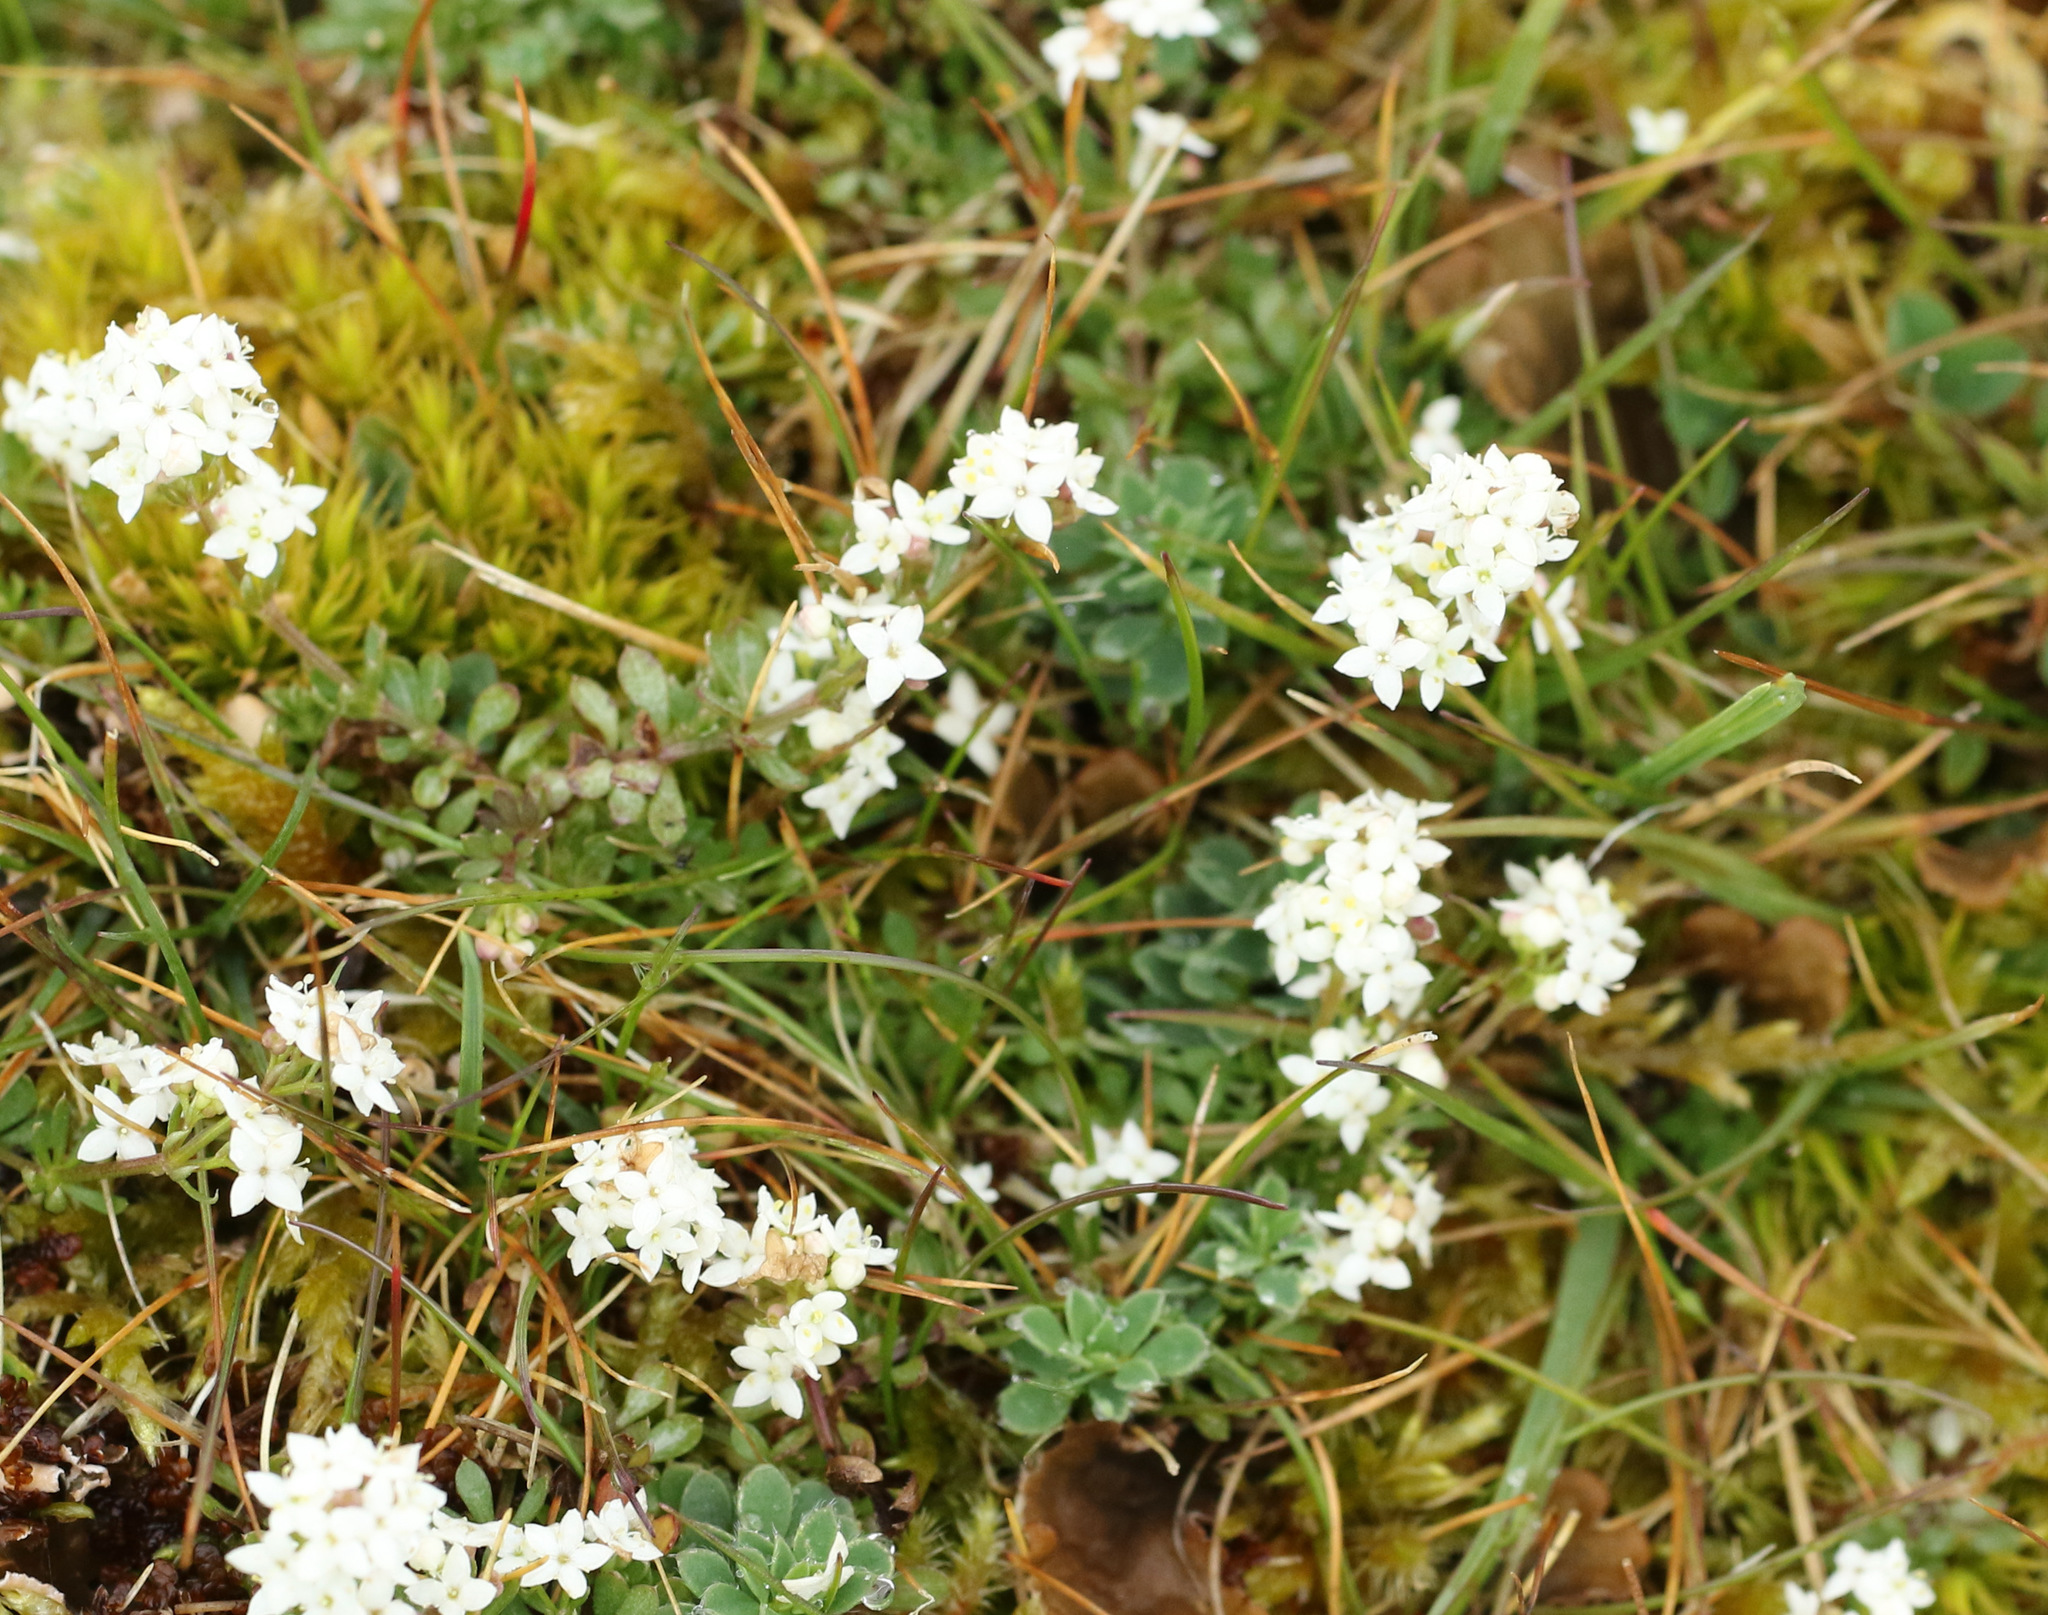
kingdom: Plantae
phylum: Tracheophyta
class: Magnoliopsida
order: Gentianales
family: Rubiaceae
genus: Galium
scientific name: Galium saxatile
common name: Heath bedstraw
